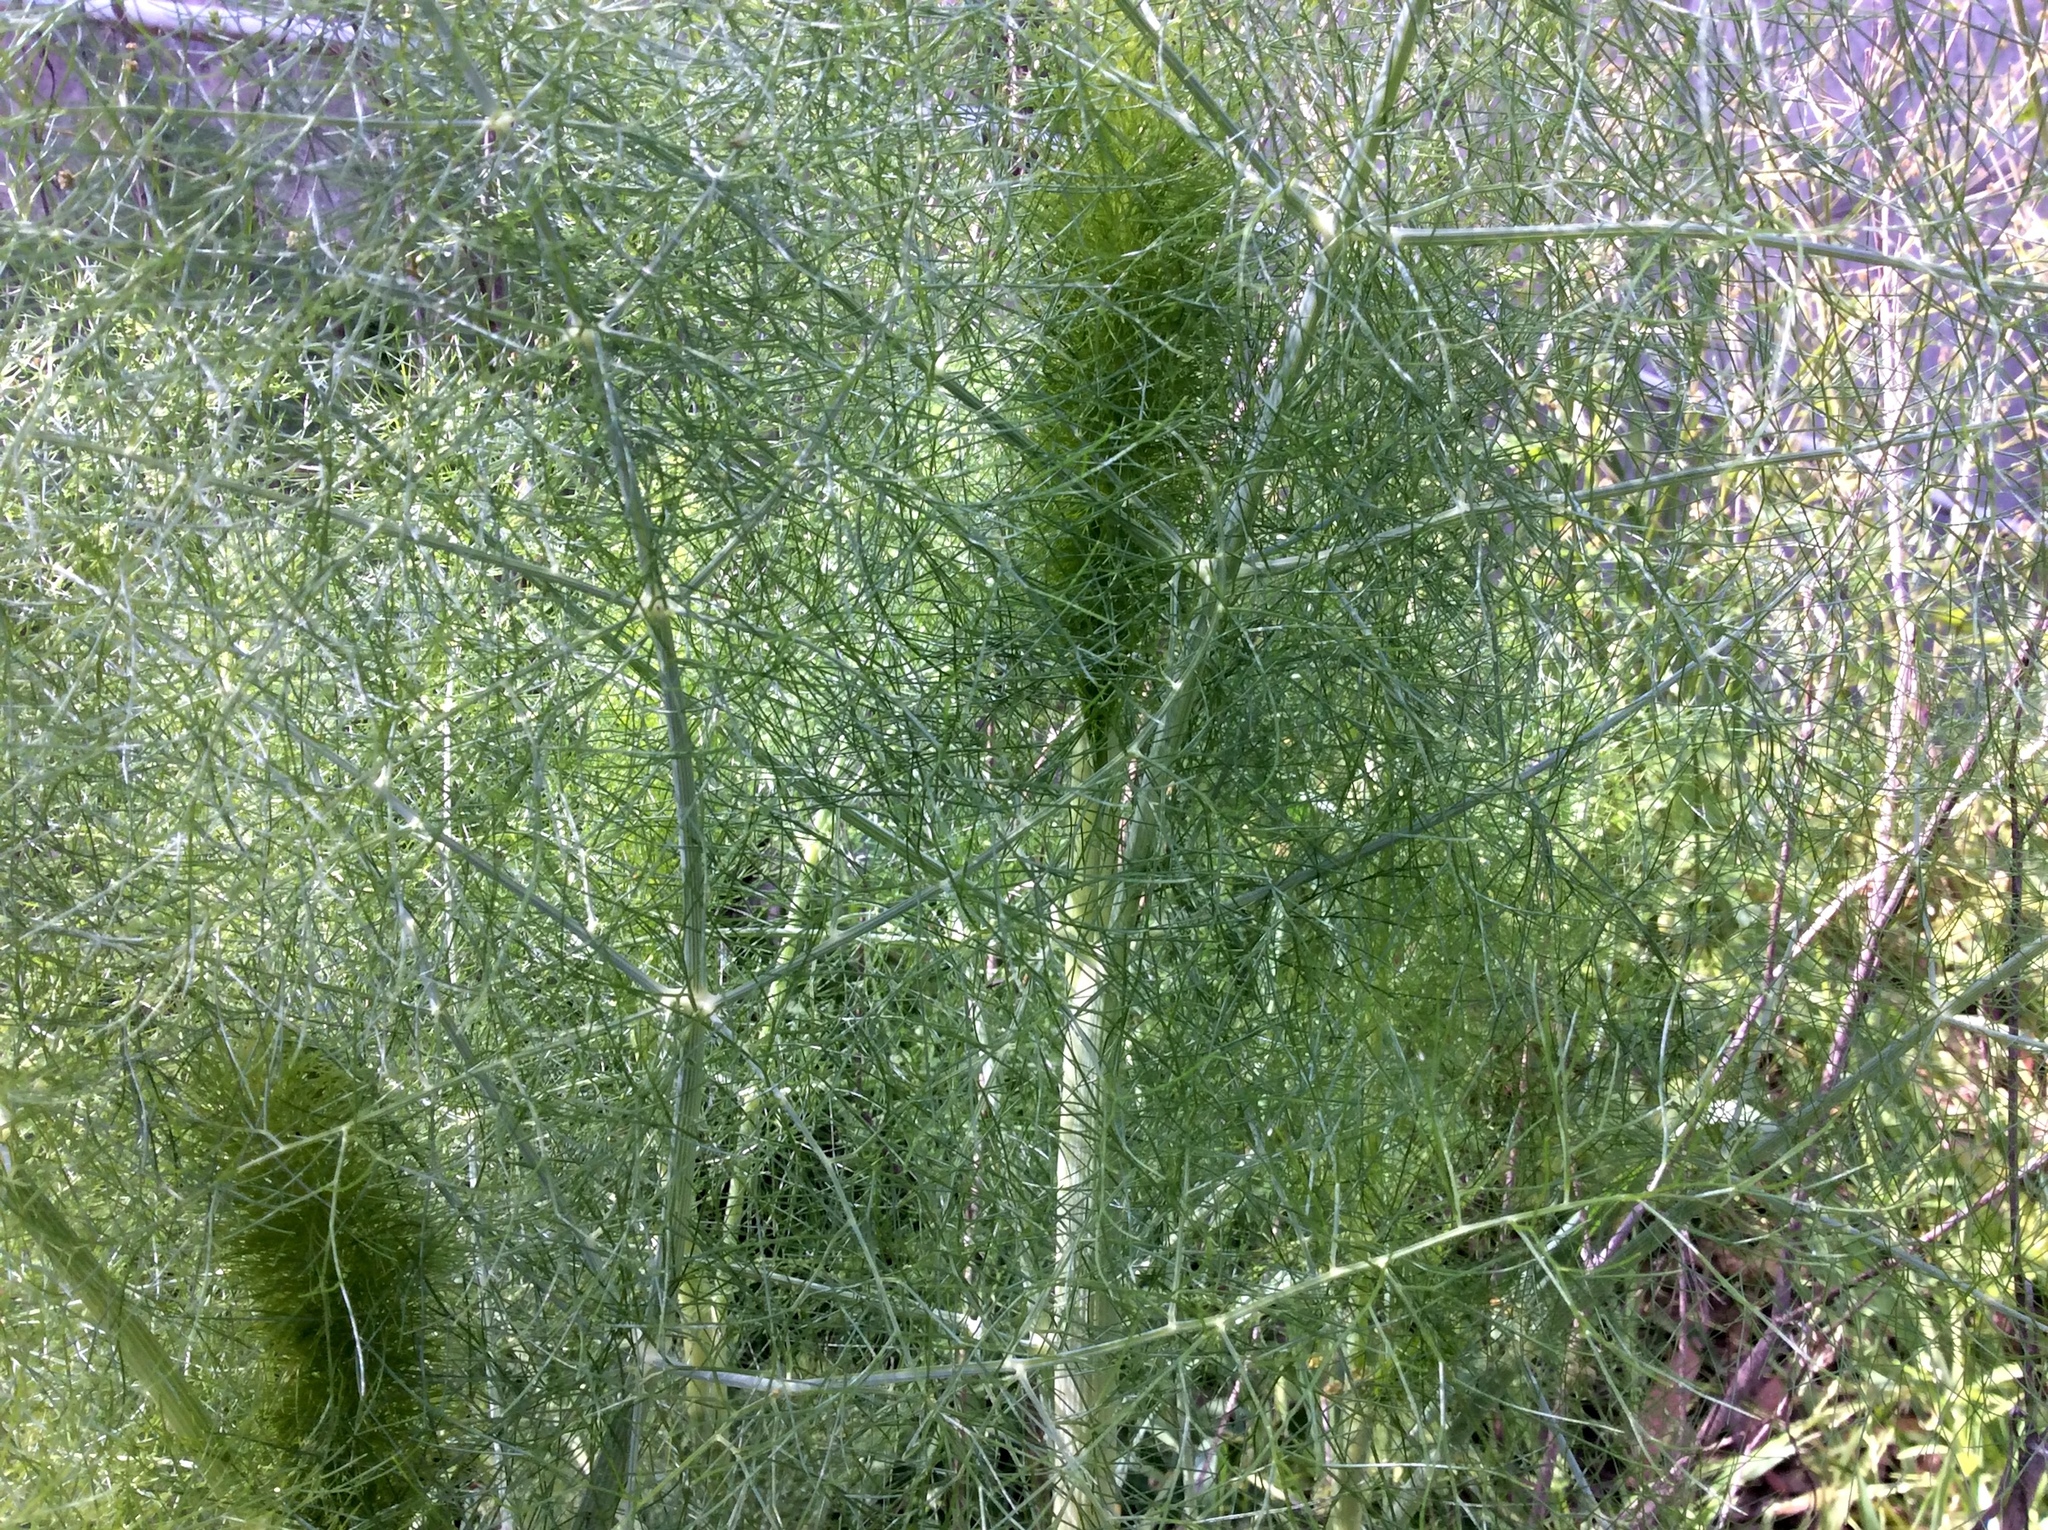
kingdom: Plantae
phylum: Tracheophyta
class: Magnoliopsida
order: Apiales
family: Apiaceae
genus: Foeniculum
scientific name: Foeniculum vulgare
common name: Fennel
